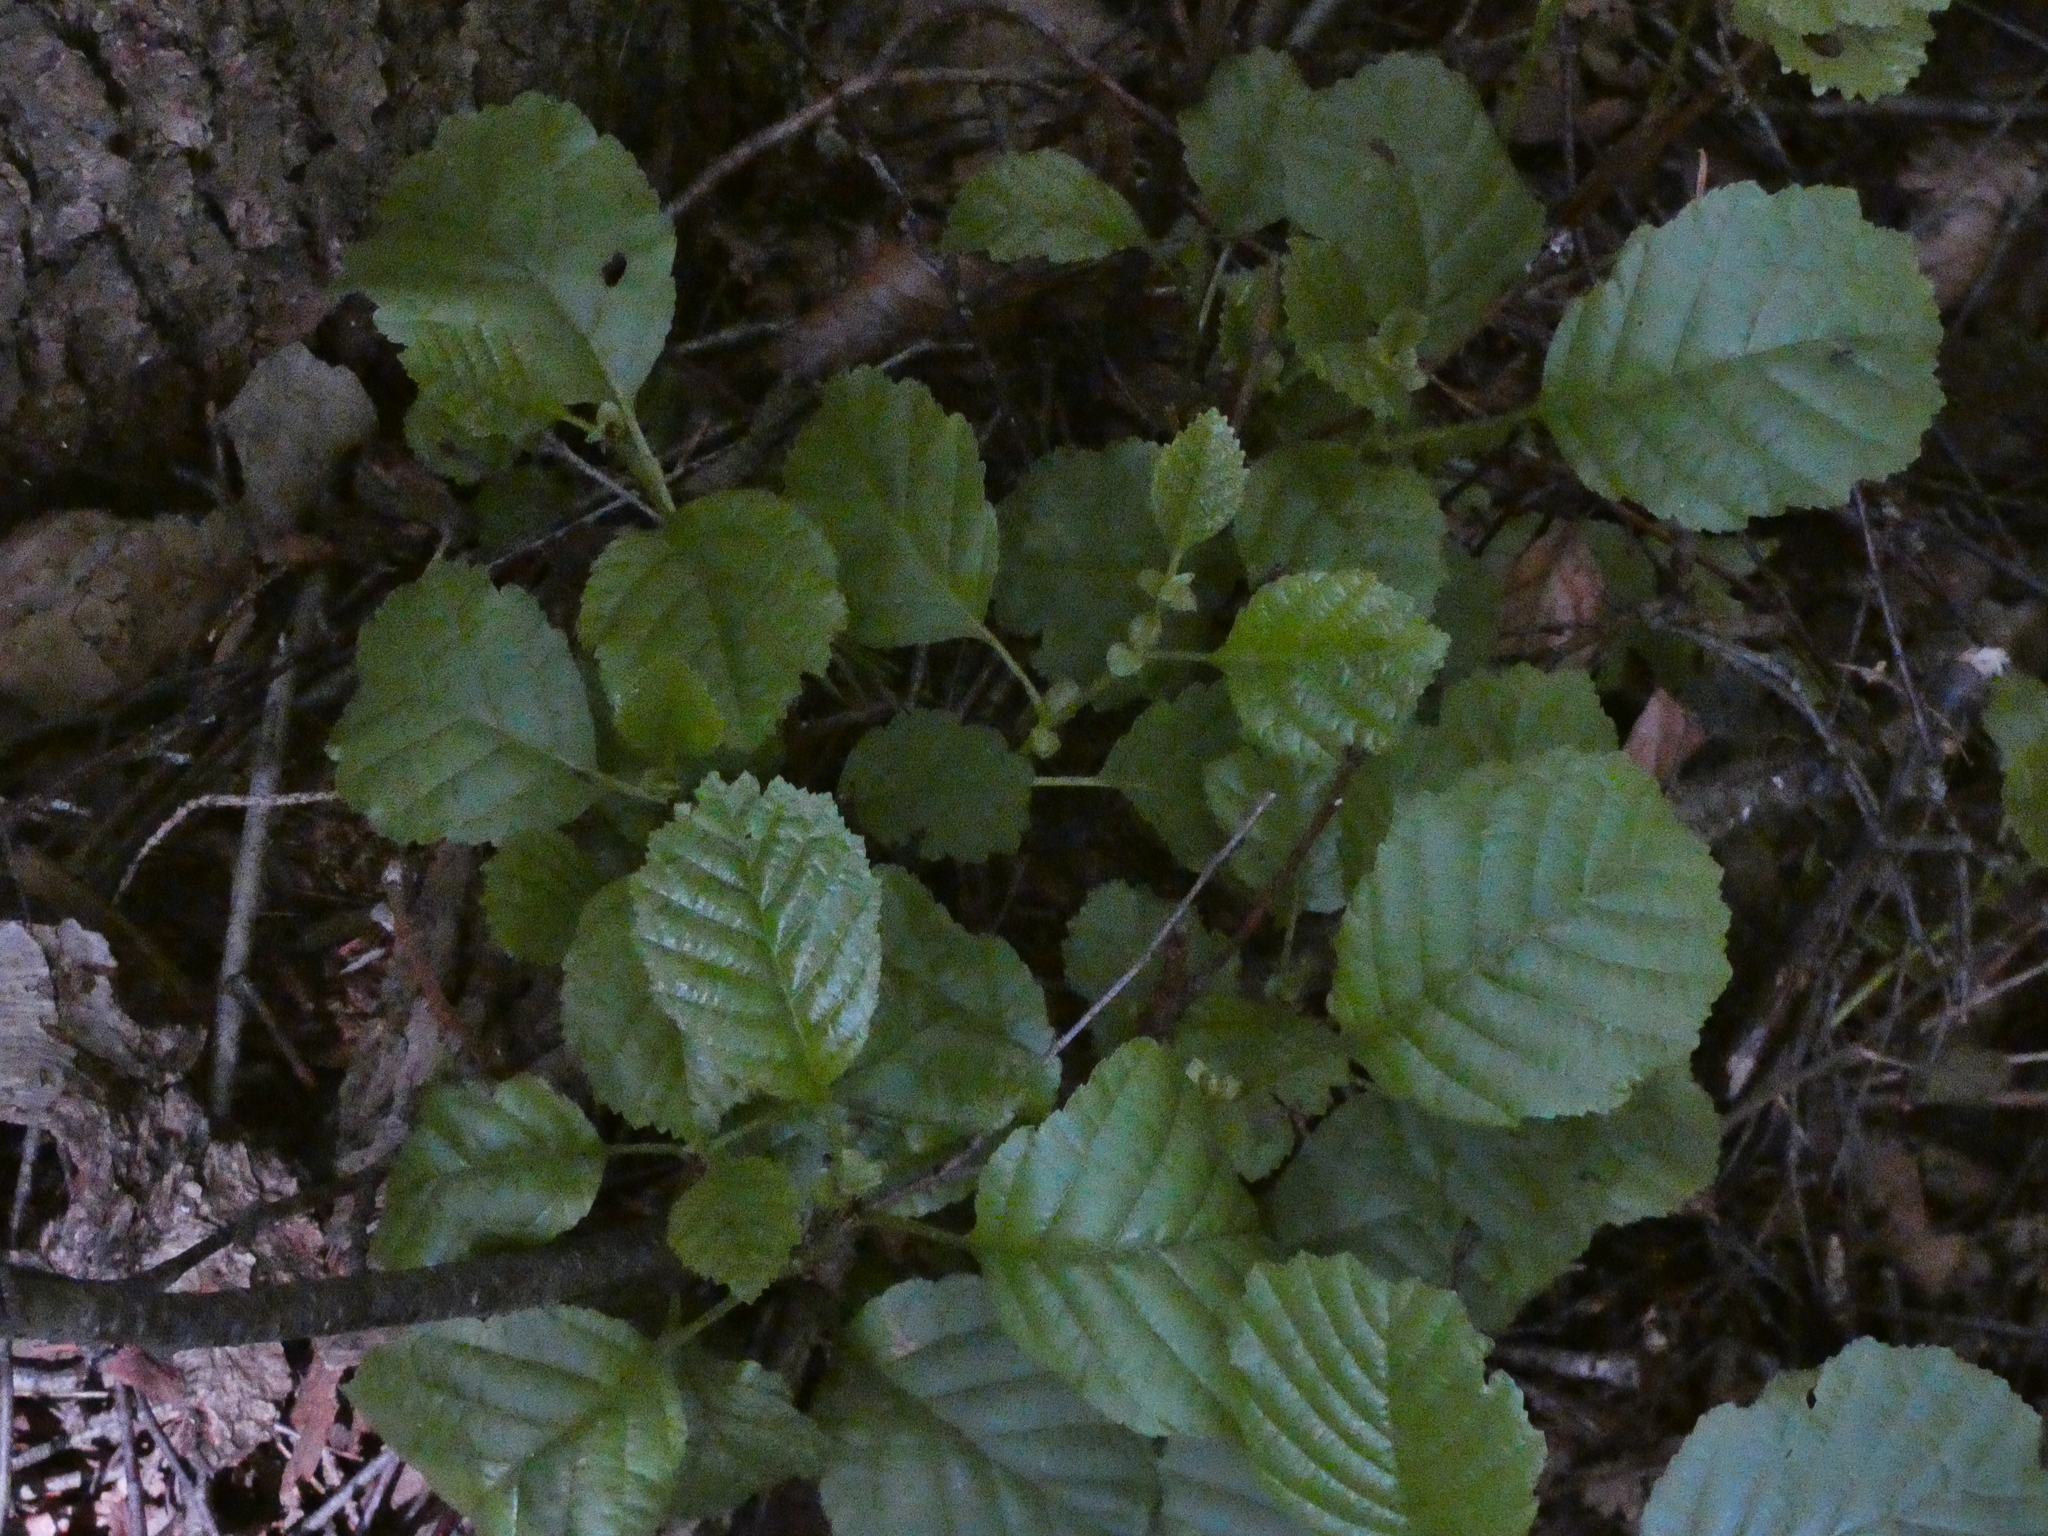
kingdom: Plantae
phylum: Tracheophyta
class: Magnoliopsida
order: Fagales
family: Betulaceae
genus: Alnus
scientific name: Alnus glutinosa
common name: Black alder
